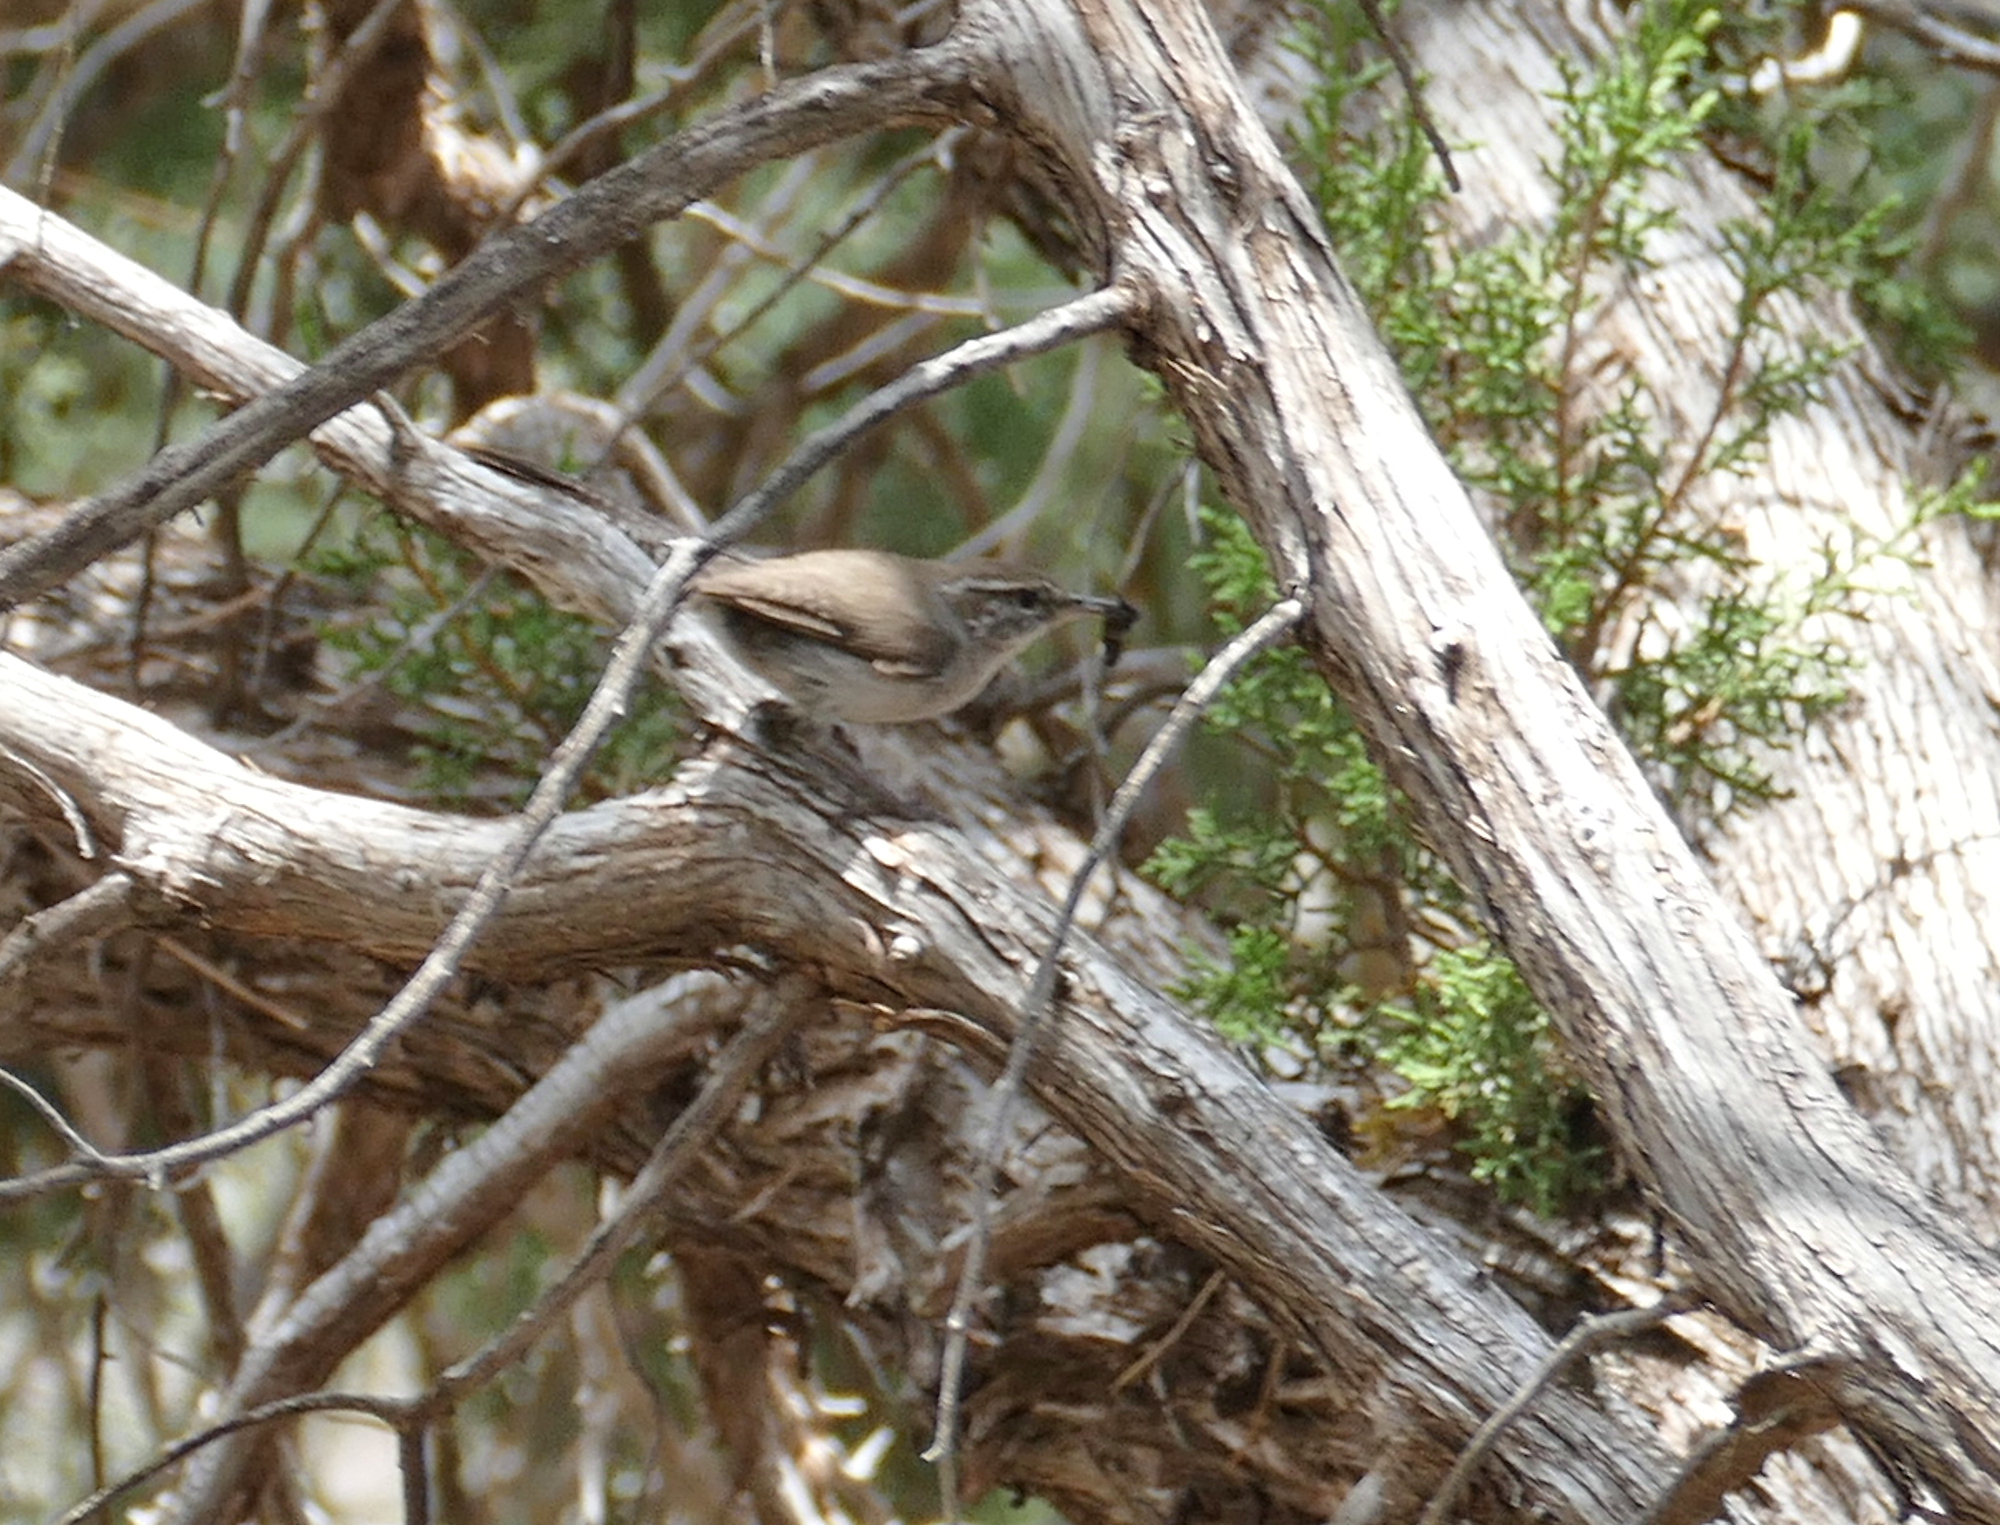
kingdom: Animalia
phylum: Chordata
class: Aves
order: Passeriformes
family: Troglodytidae
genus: Thryomanes
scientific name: Thryomanes bewickii
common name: Bewick's wren
